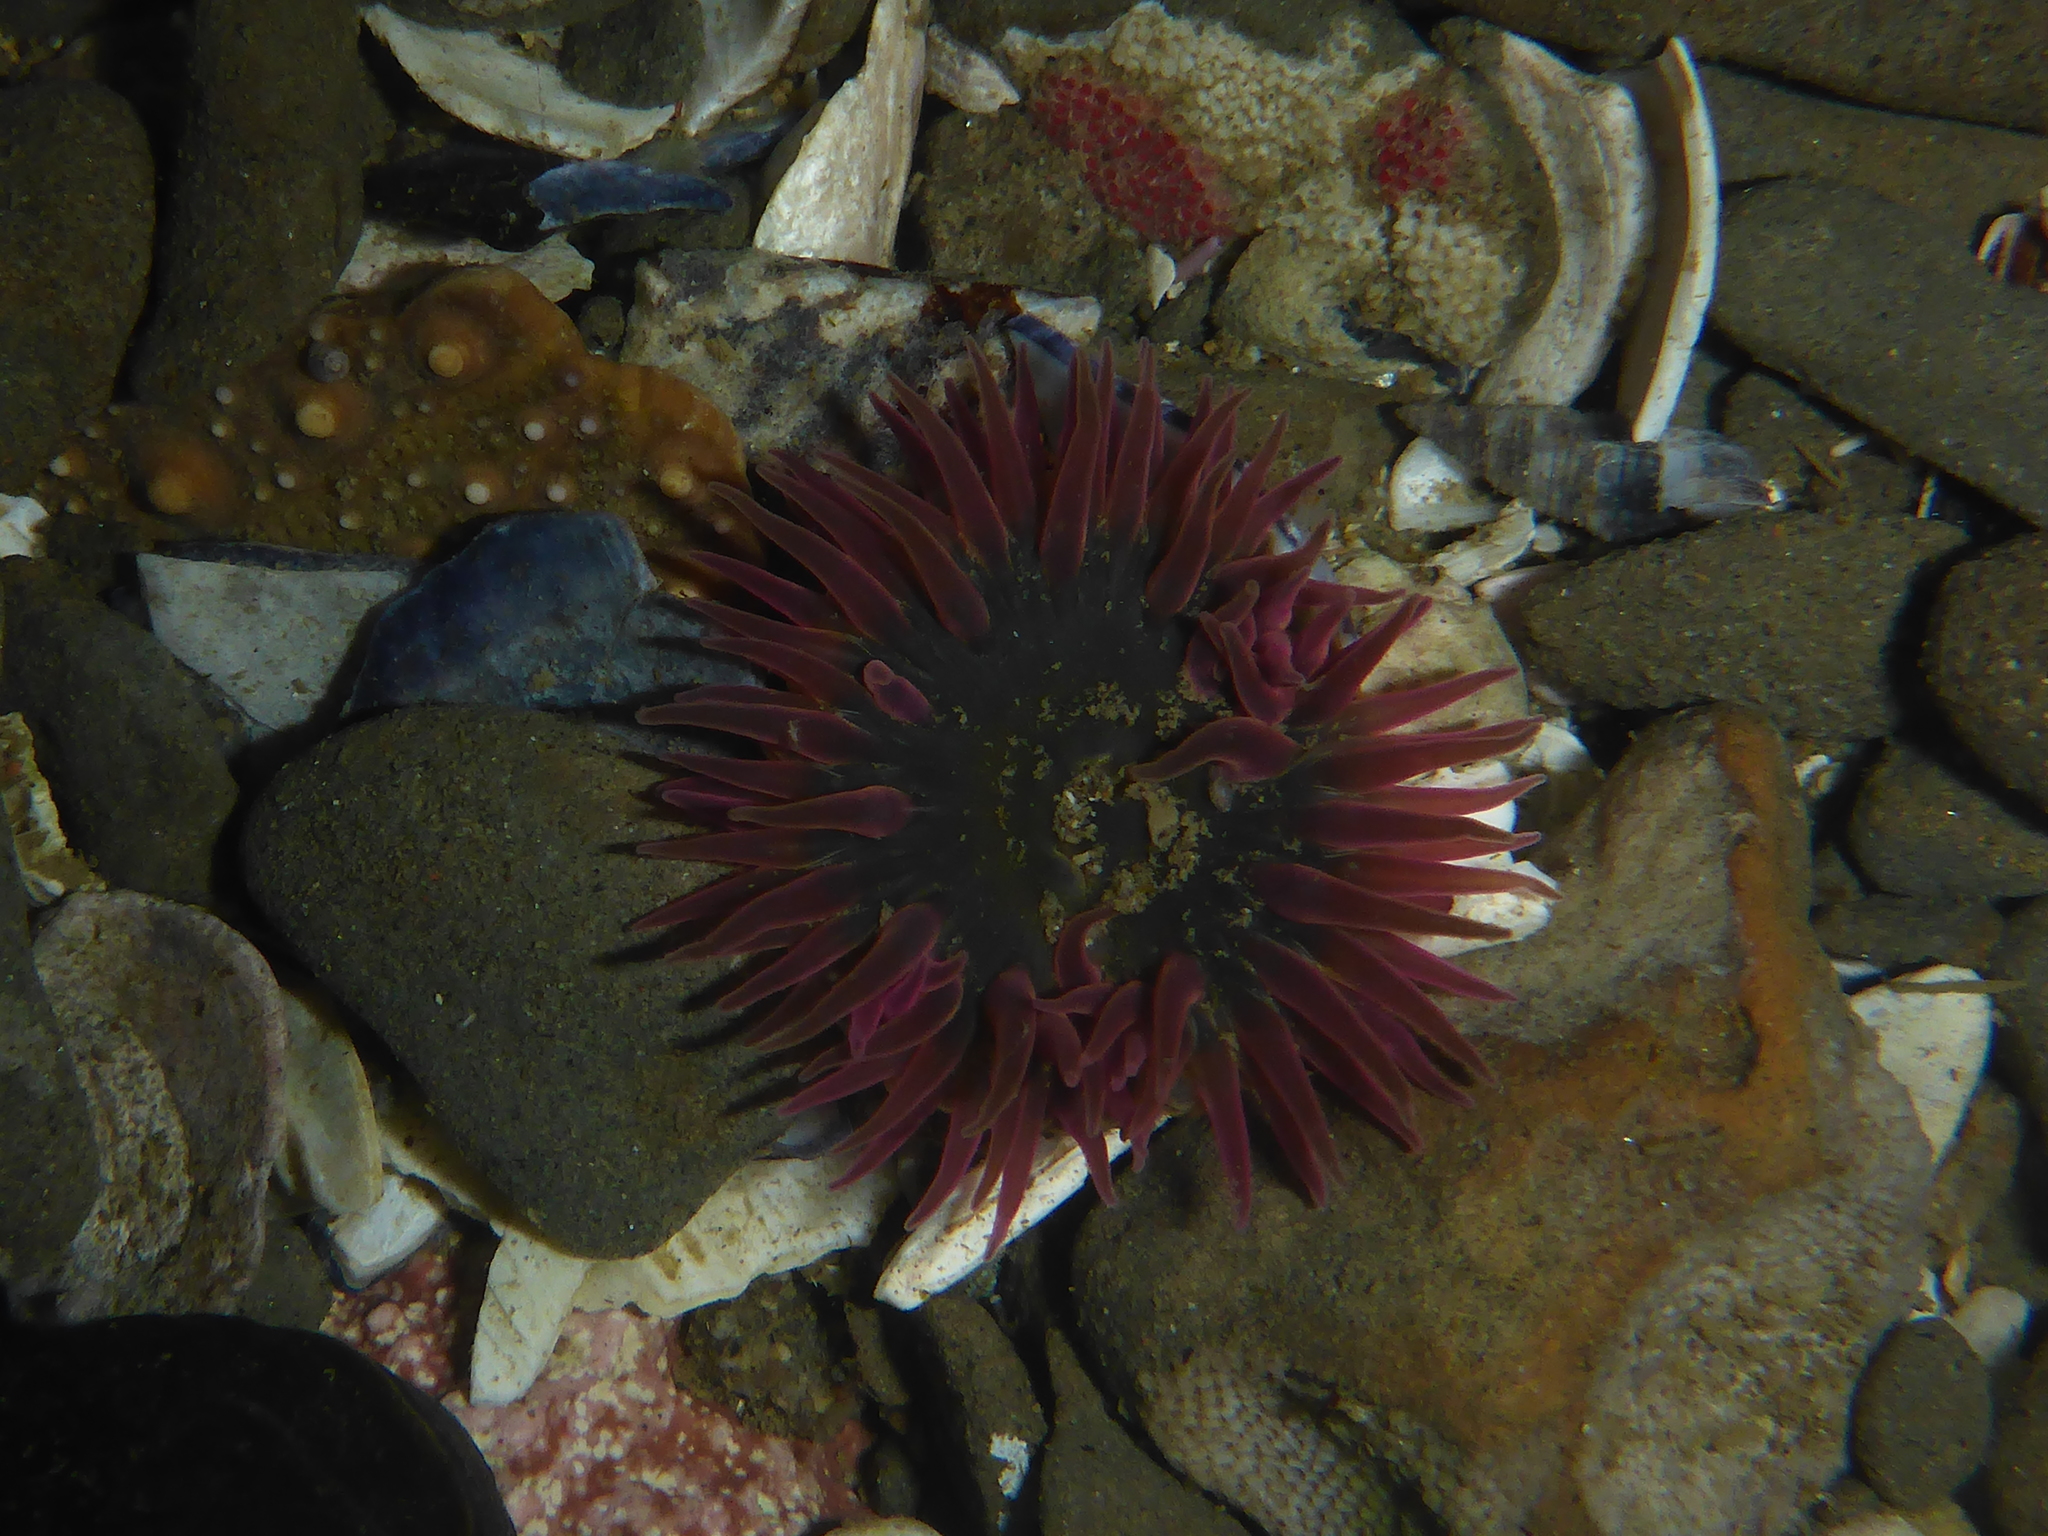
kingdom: Animalia
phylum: Cnidaria
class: Anthozoa
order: Actiniaria
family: Actiniidae
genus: Anthopleura
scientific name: Anthopleura artemisia
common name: Buried sea anemone
